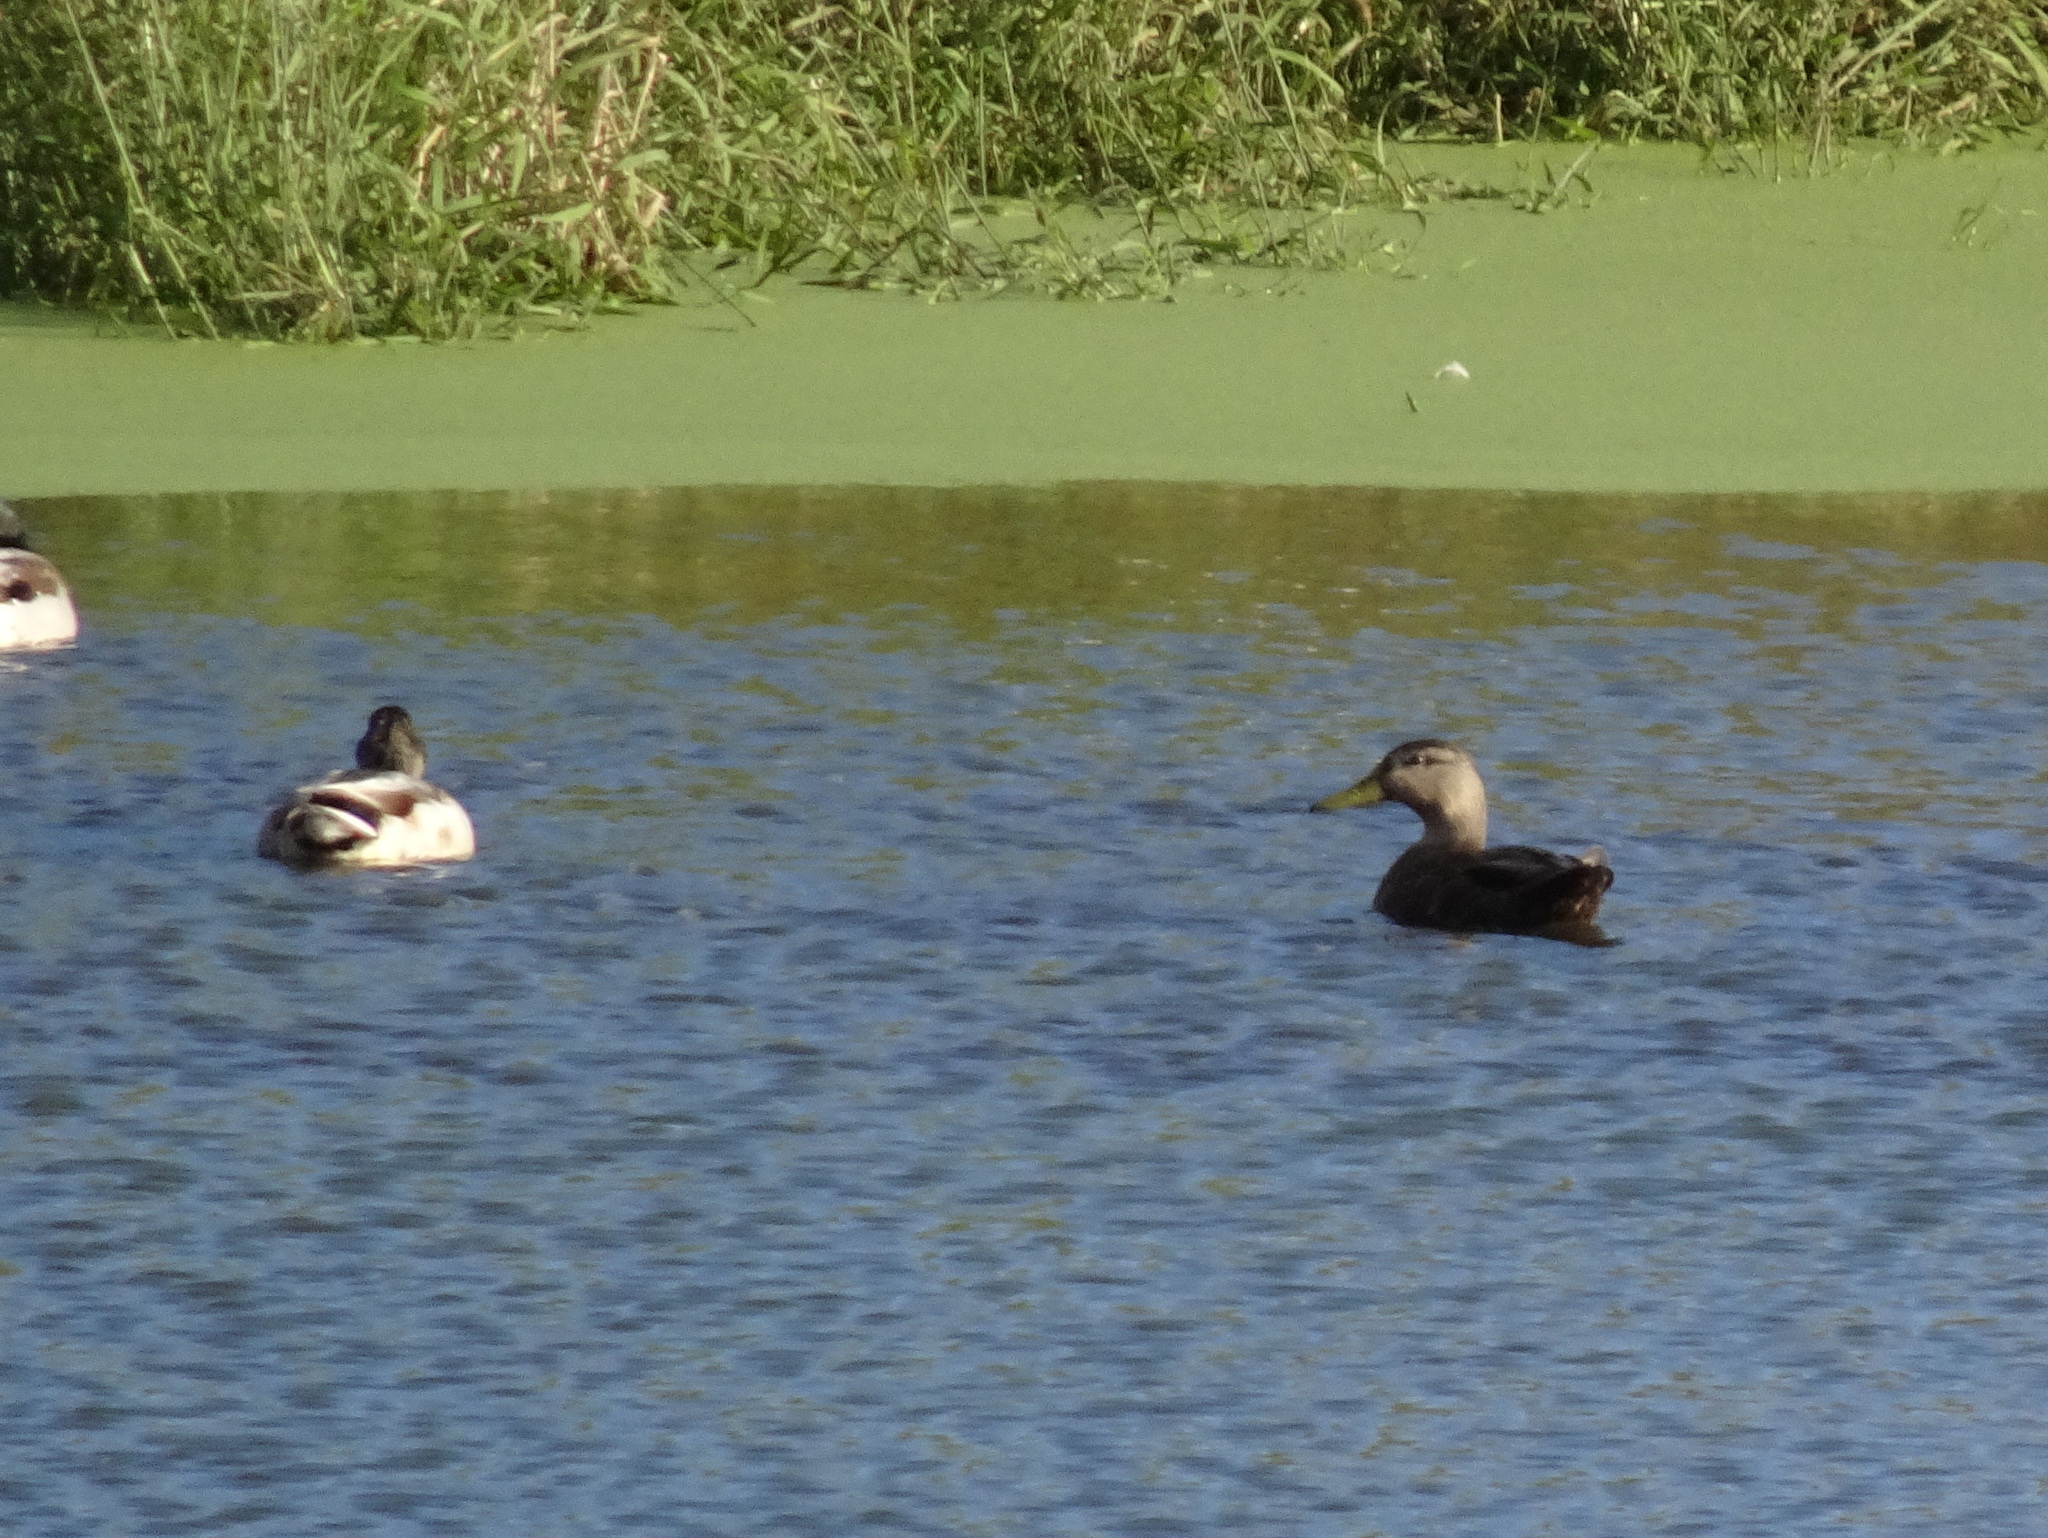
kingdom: Animalia
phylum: Chordata
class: Aves
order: Anseriformes
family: Anatidae
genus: Anas
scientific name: Anas rubripes
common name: American black duck
